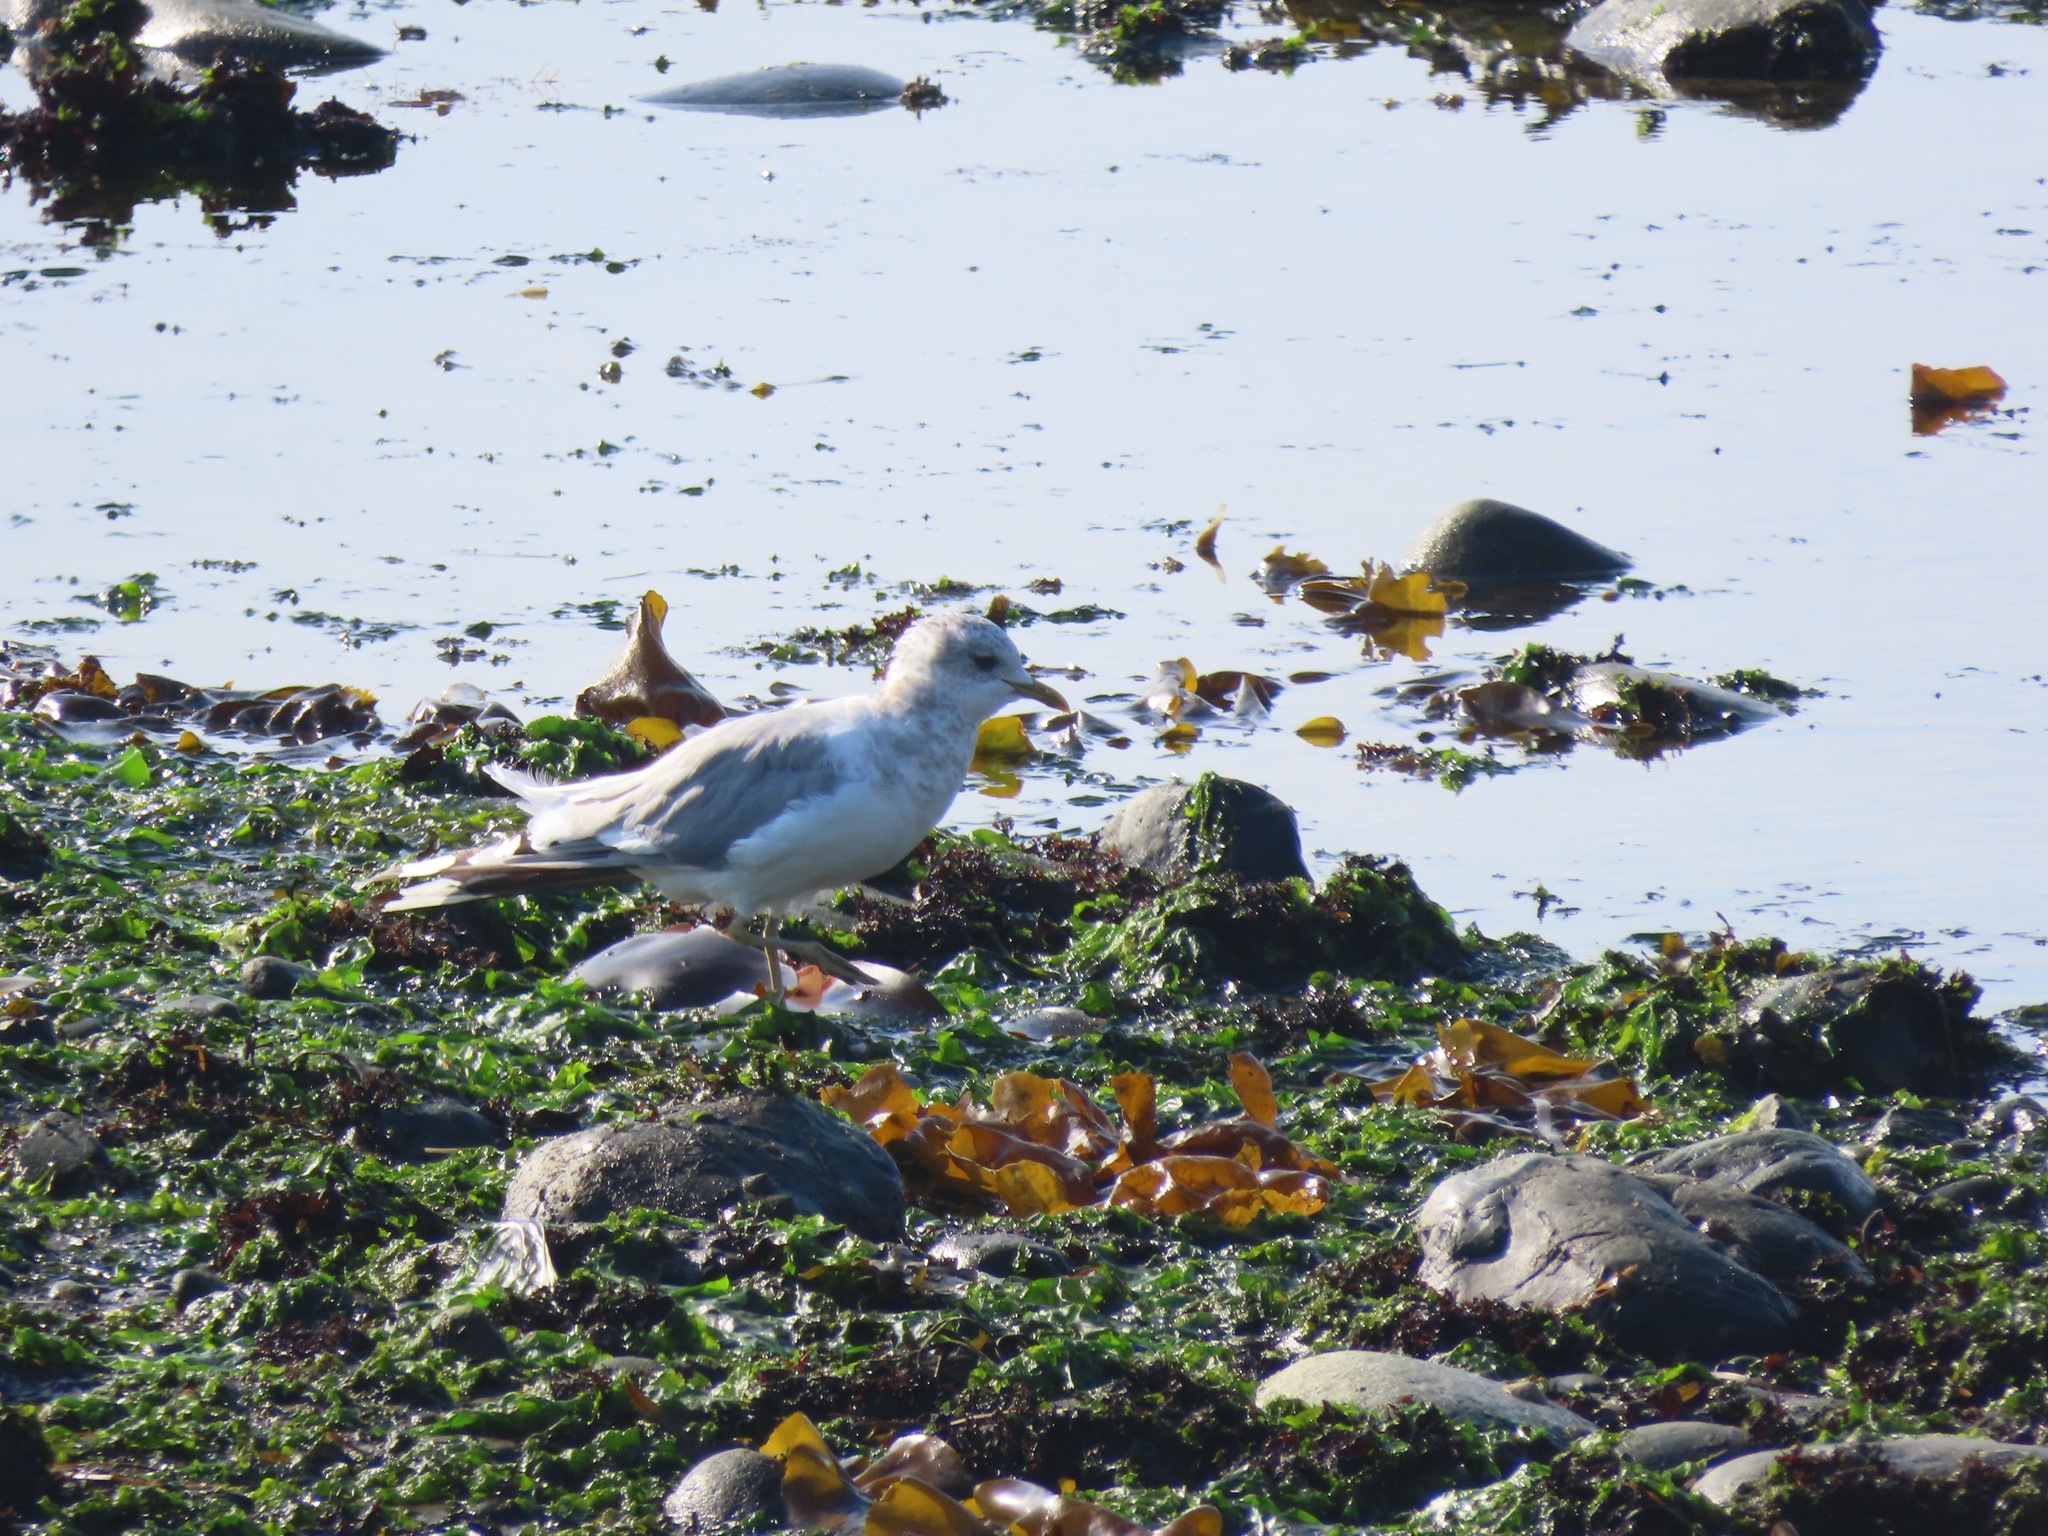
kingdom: Animalia
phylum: Chordata
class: Aves
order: Charadriiformes
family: Laridae
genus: Larus
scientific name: Larus brachyrhynchus
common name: Short-billed gull
